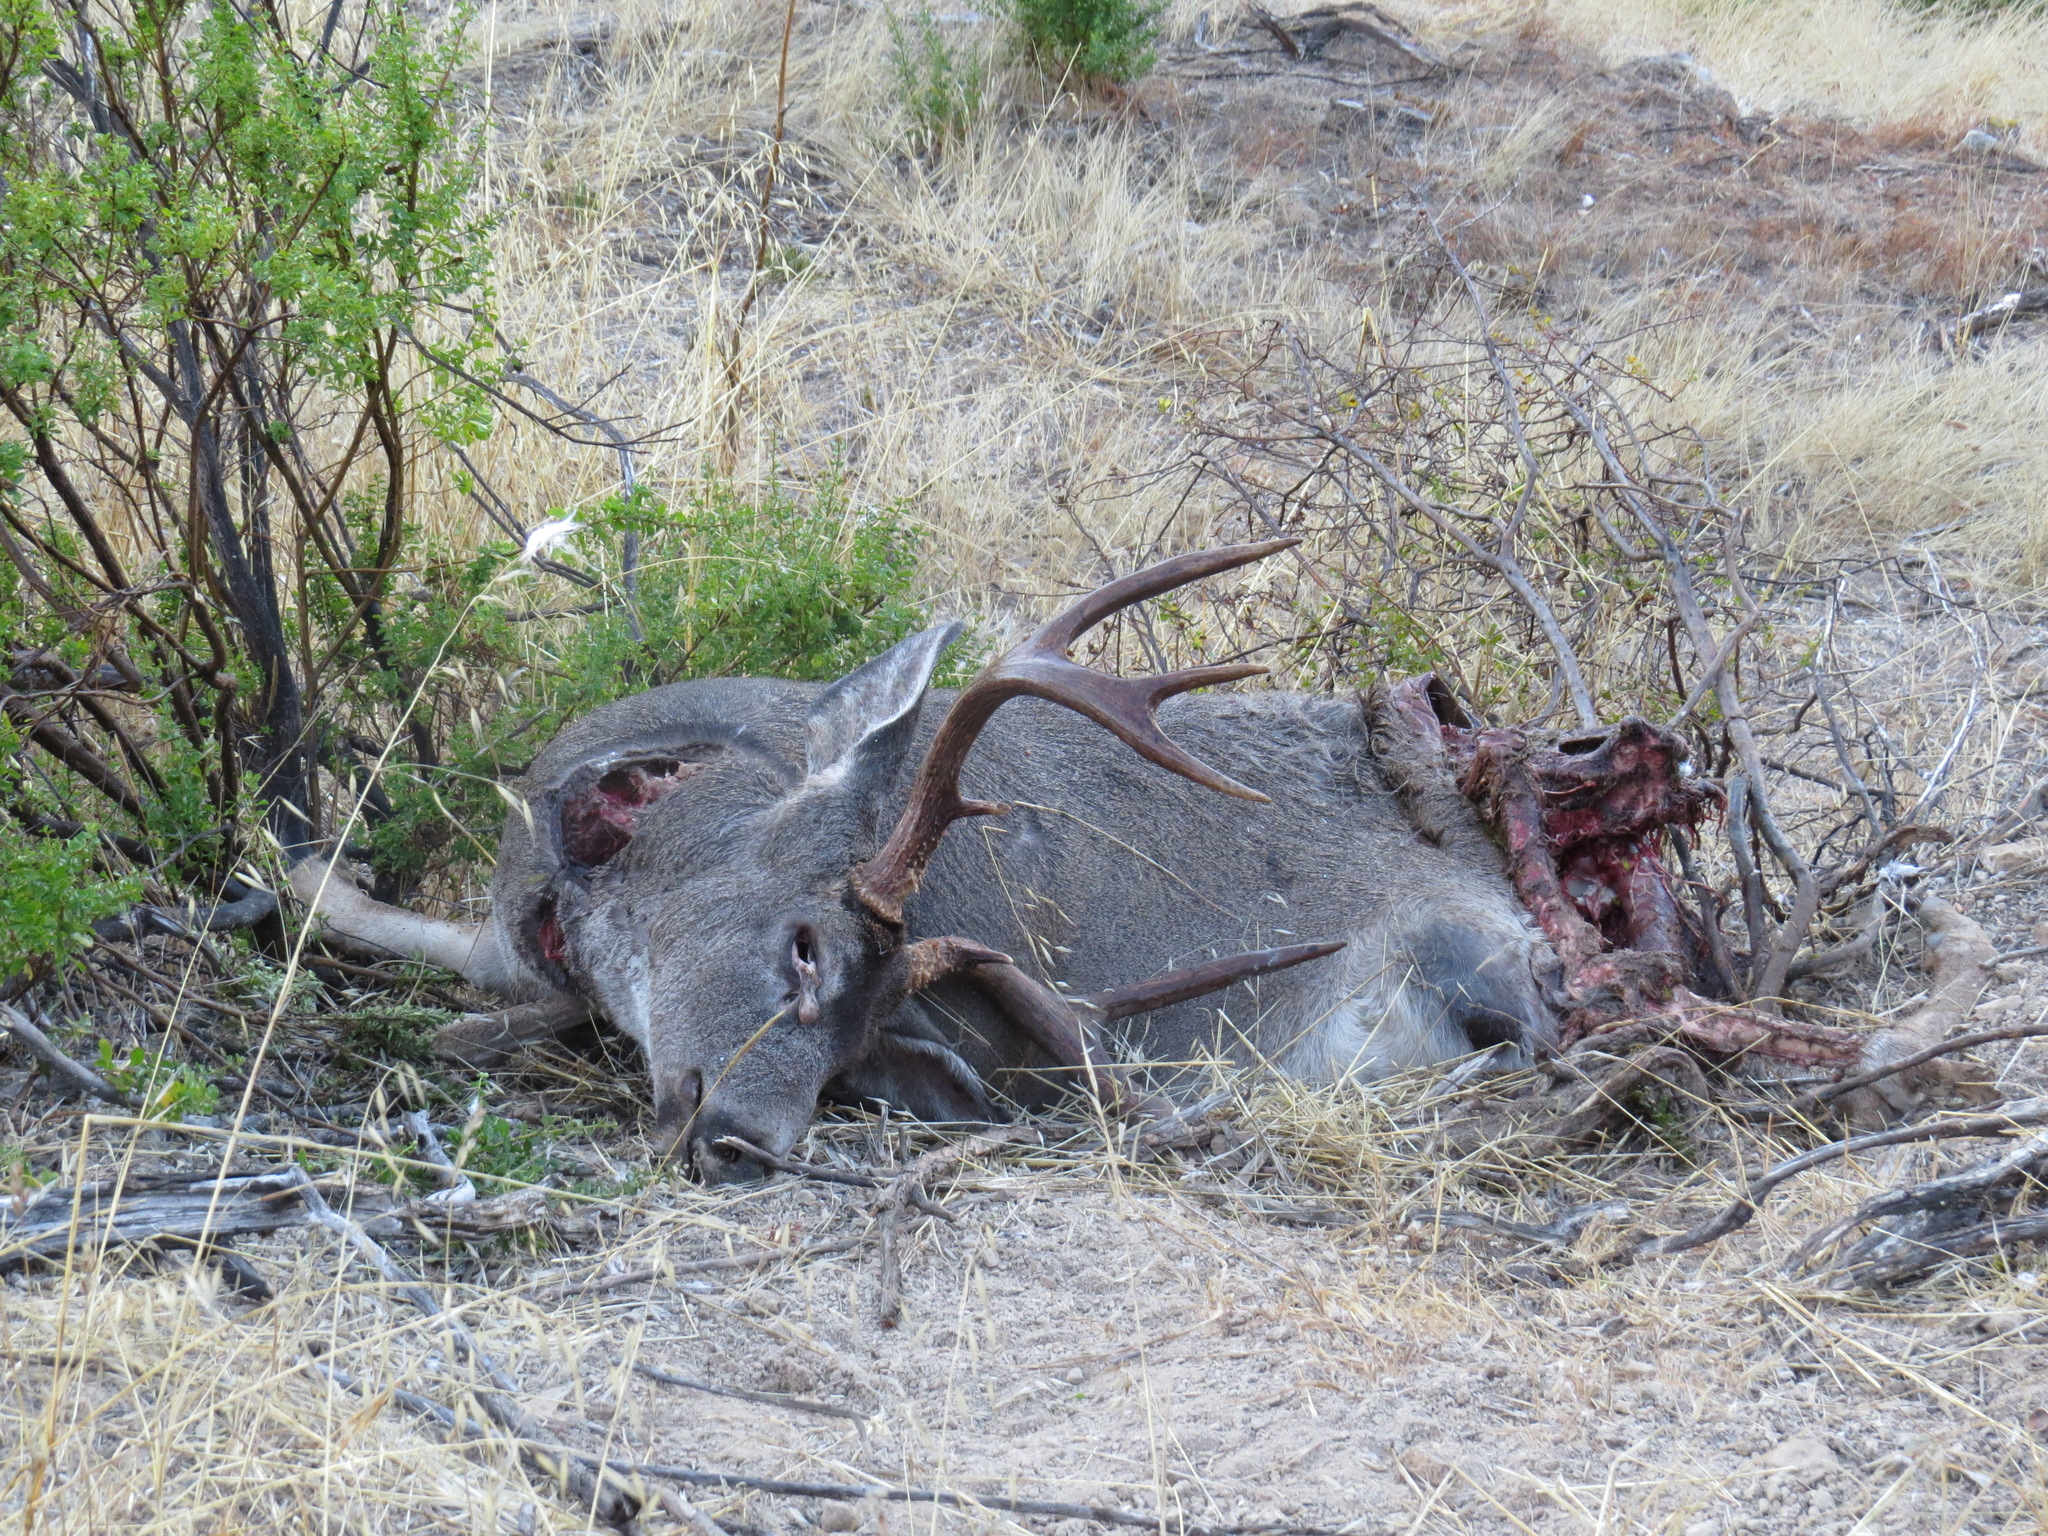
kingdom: Animalia
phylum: Chordata
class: Mammalia
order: Artiodactyla
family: Cervidae
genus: Odocoileus
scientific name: Odocoileus hemionus
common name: Mule deer
